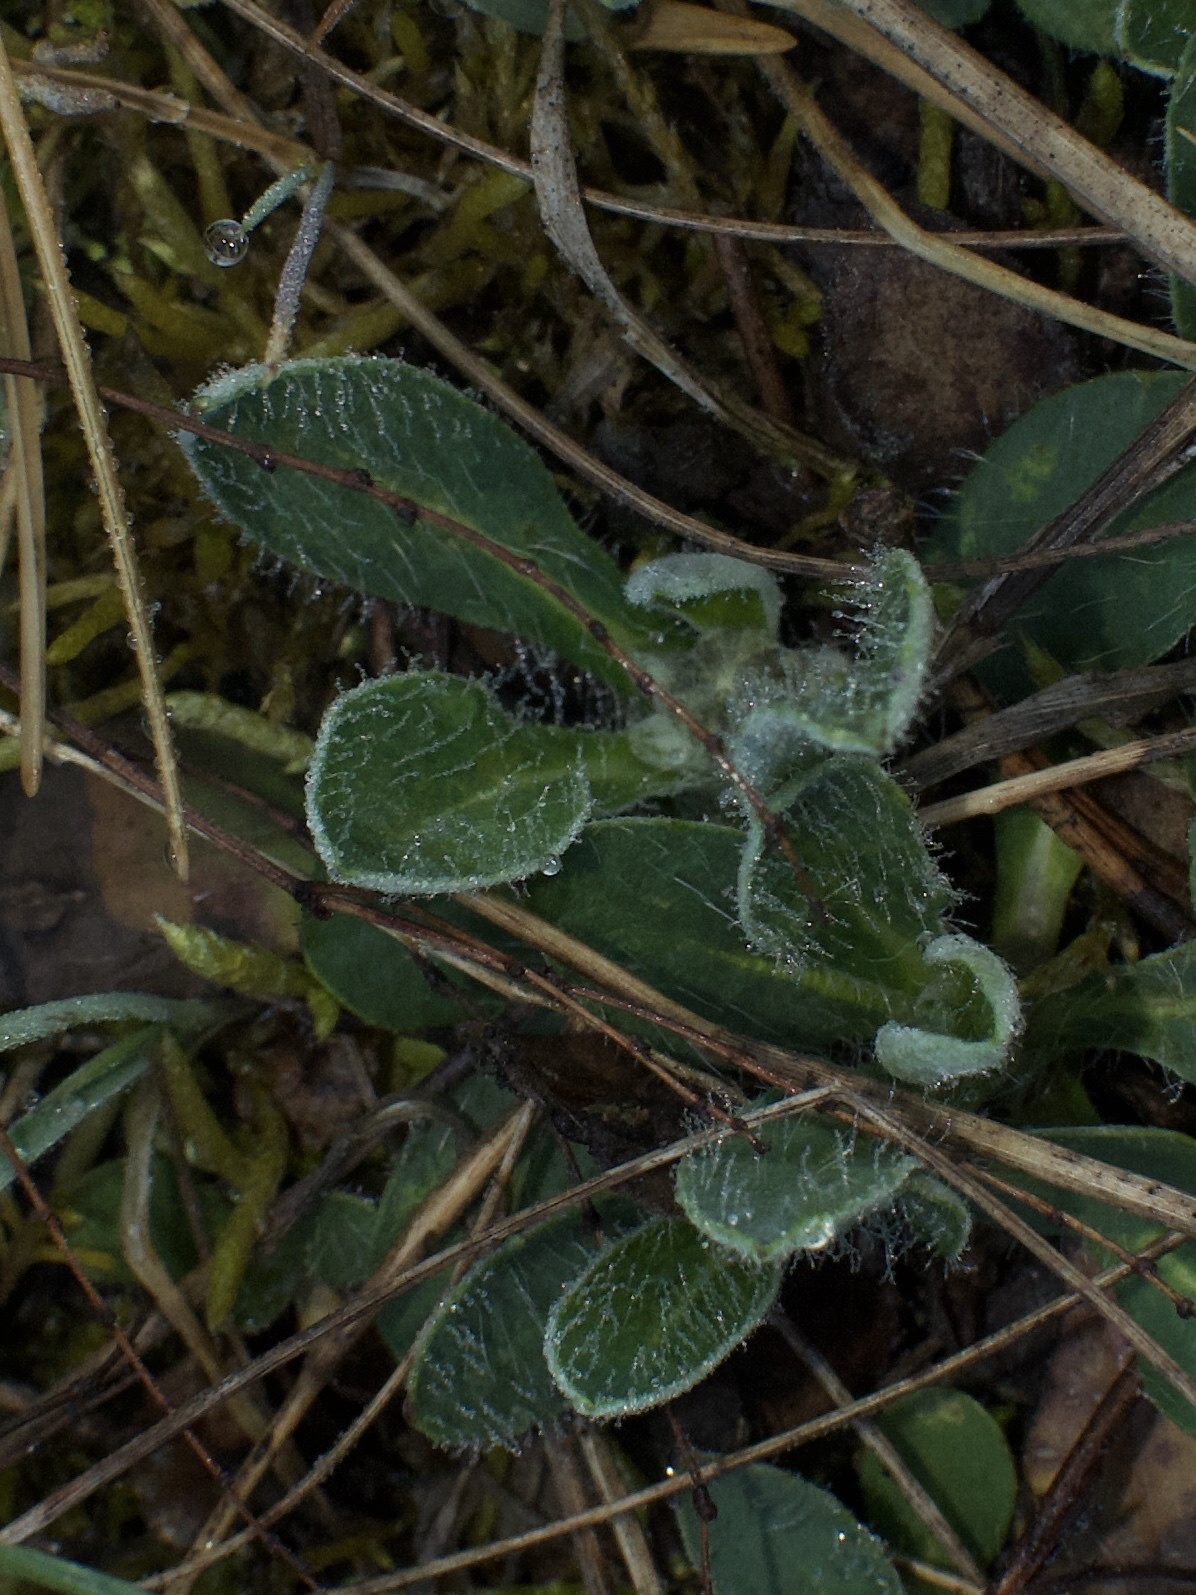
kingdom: Plantae
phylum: Tracheophyta
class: Magnoliopsida
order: Asterales
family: Asteraceae
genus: Pilosella
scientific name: Pilosella officinarum
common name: Mouse-ear hawkweed
